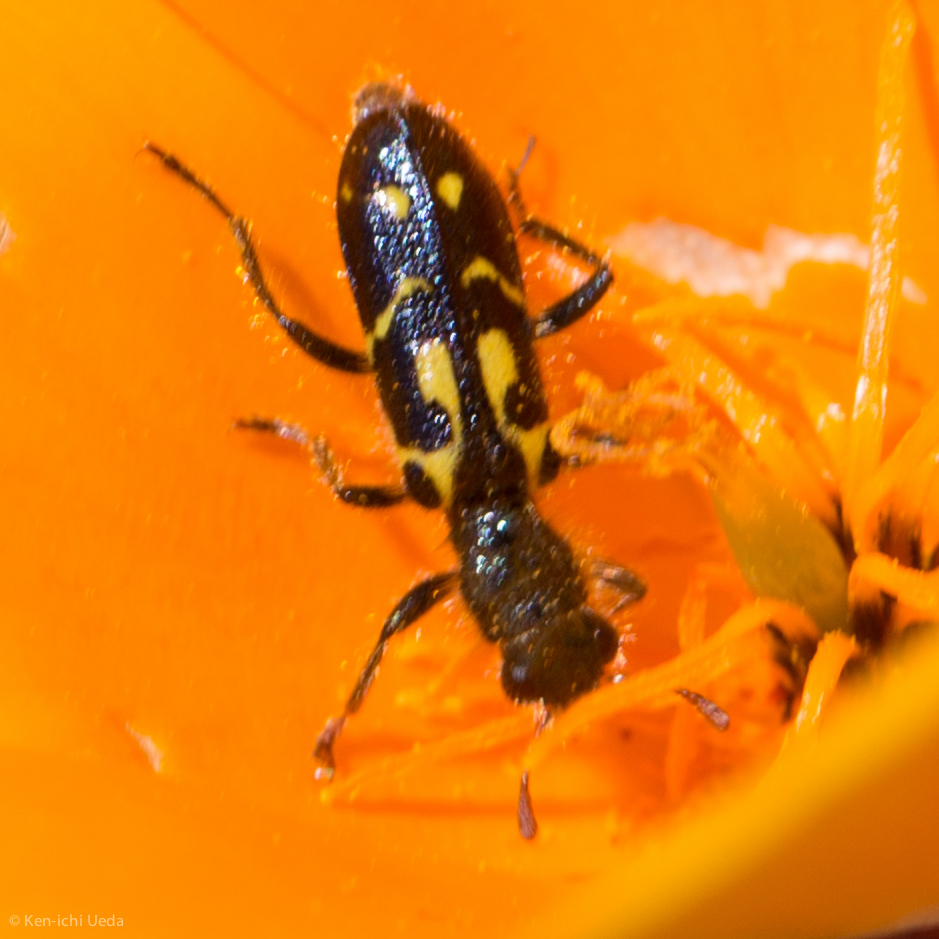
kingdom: Animalia
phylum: Arthropoda
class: Insecta
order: Coleoptera
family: Cleridae
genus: Trichodes
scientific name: Trichodes ornatus
